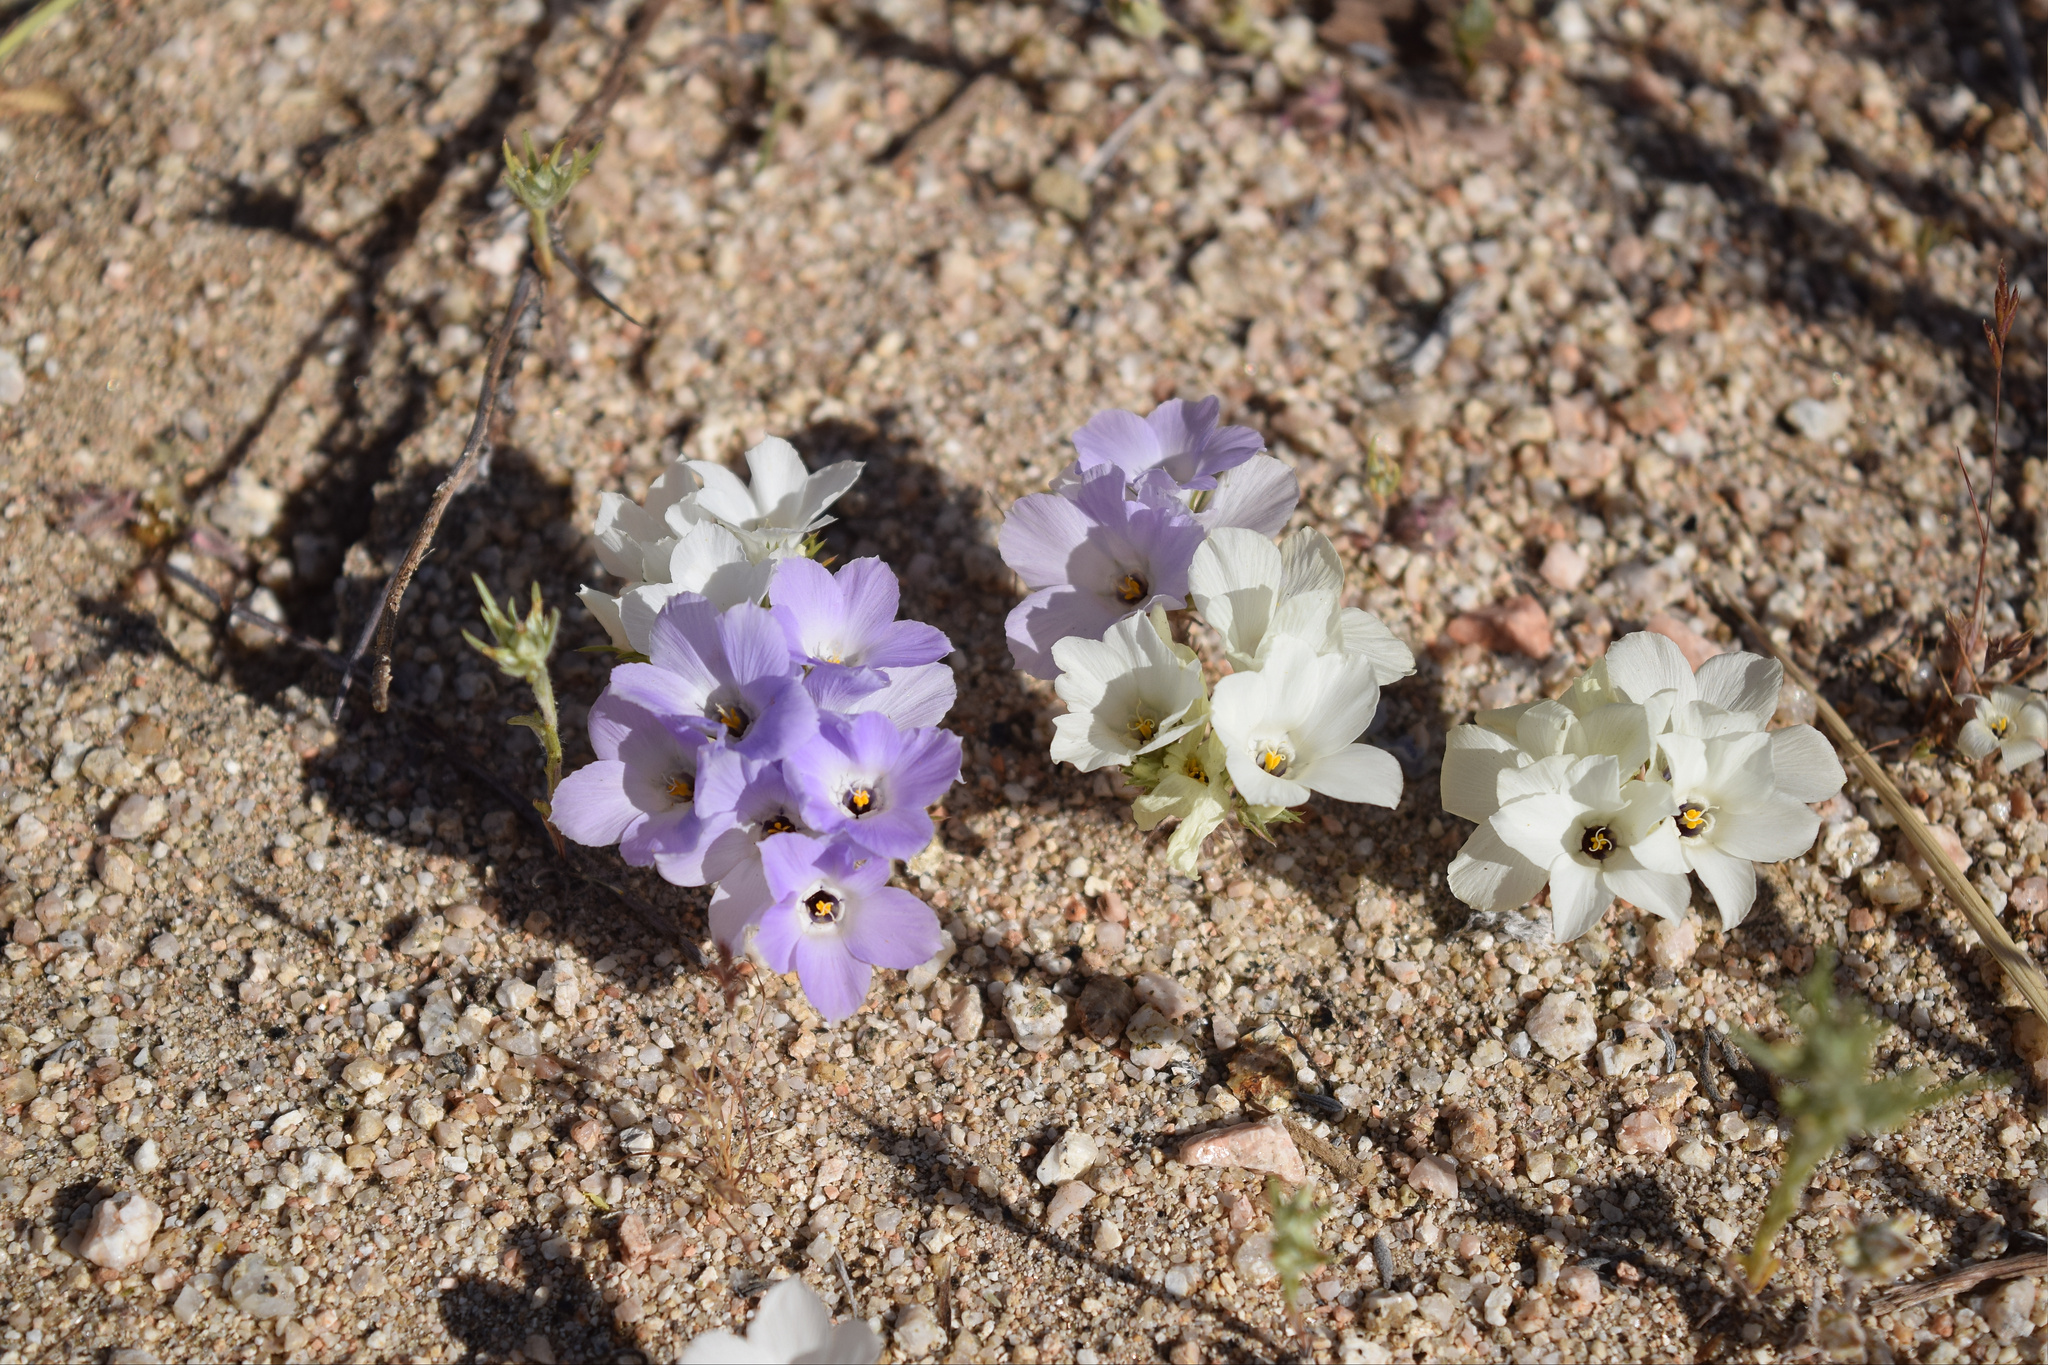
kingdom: Plantae
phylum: Tracheophyta
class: Magnoliopsida
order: Ericales
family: Polemoniaceae
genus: Linanthus
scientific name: Linanthus parryae
